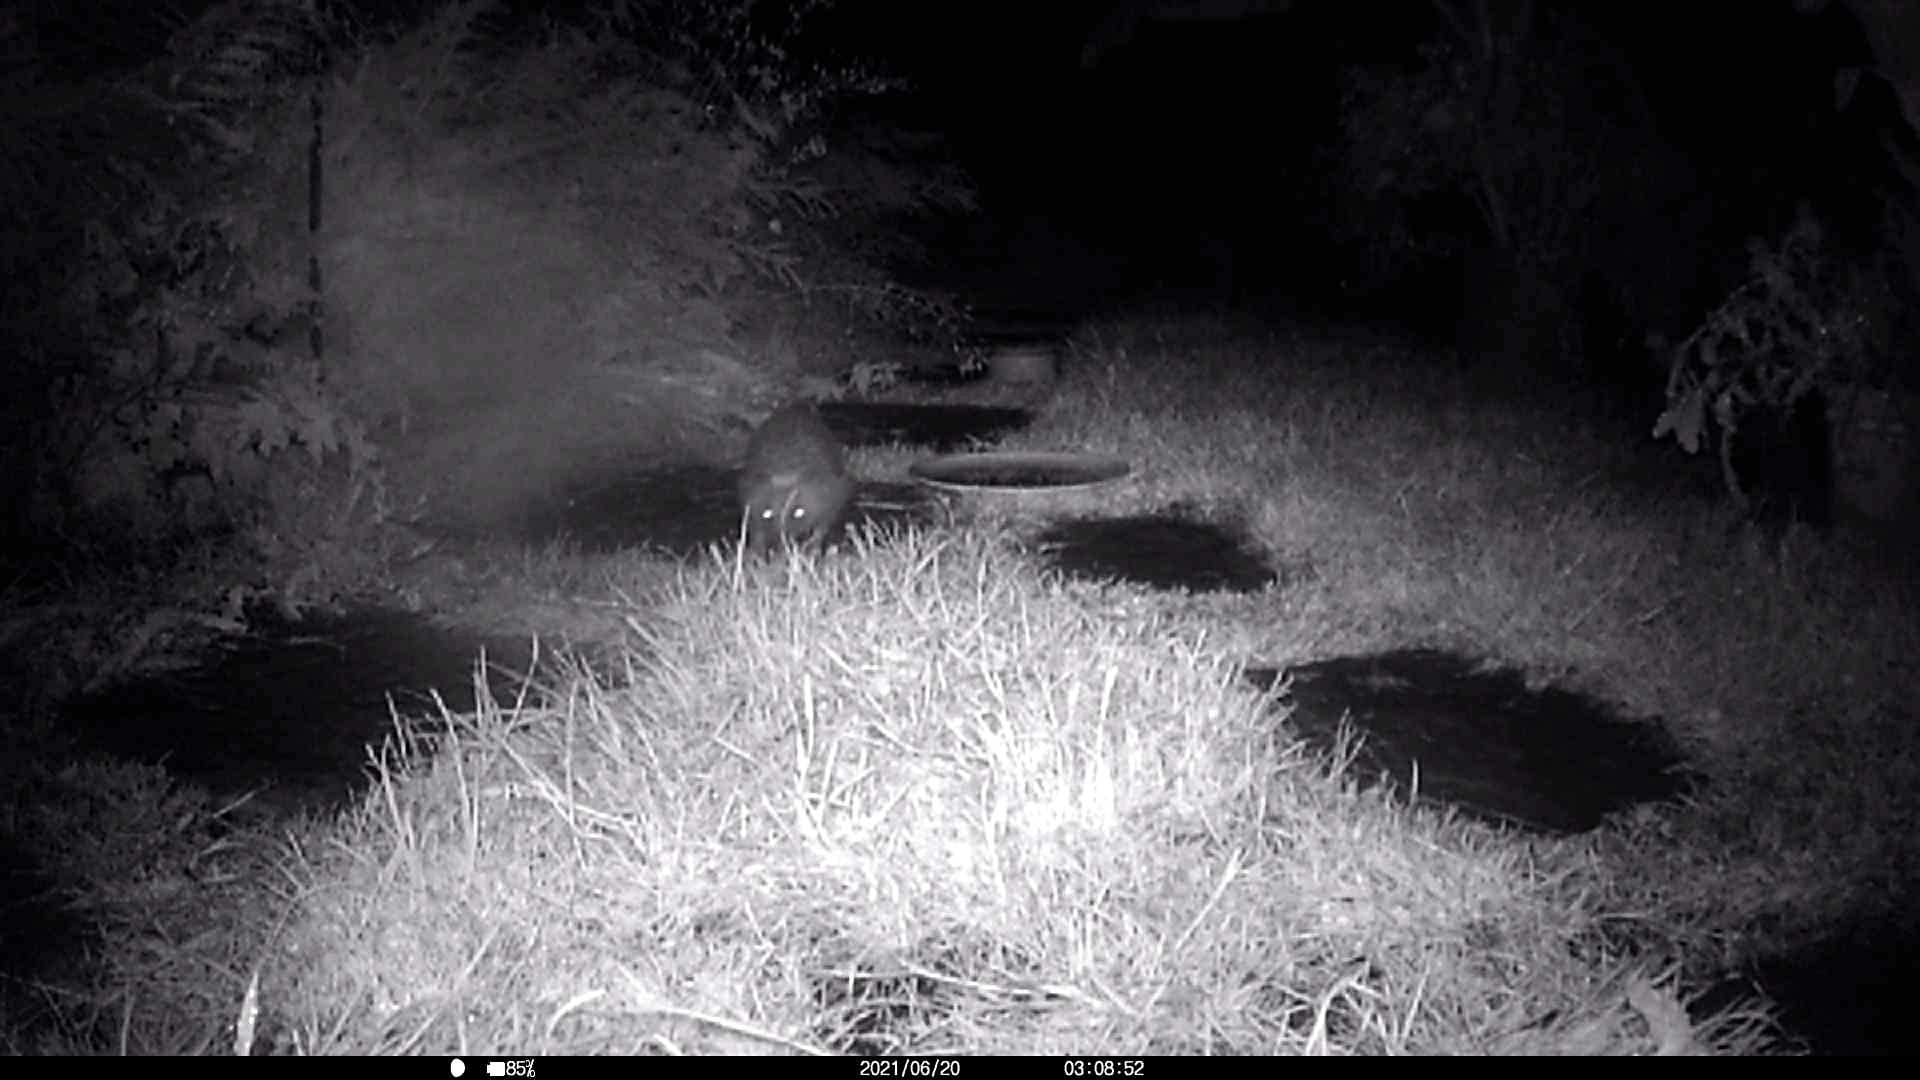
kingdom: Animalia
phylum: Chordata
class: Mammalia
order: Erinaceomorpha
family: Erinaceidae
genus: Erinaceus
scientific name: Erinaceus europaeus
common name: West european hedgehog
